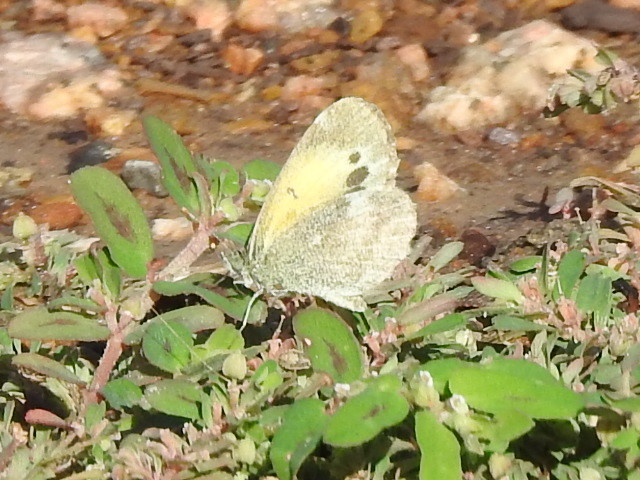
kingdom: Animalia
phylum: Arthropoda
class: Insecta
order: Lepidoptera
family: Pieridae
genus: Nathalis
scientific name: Nathalis iole
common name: Dainty sulphur
